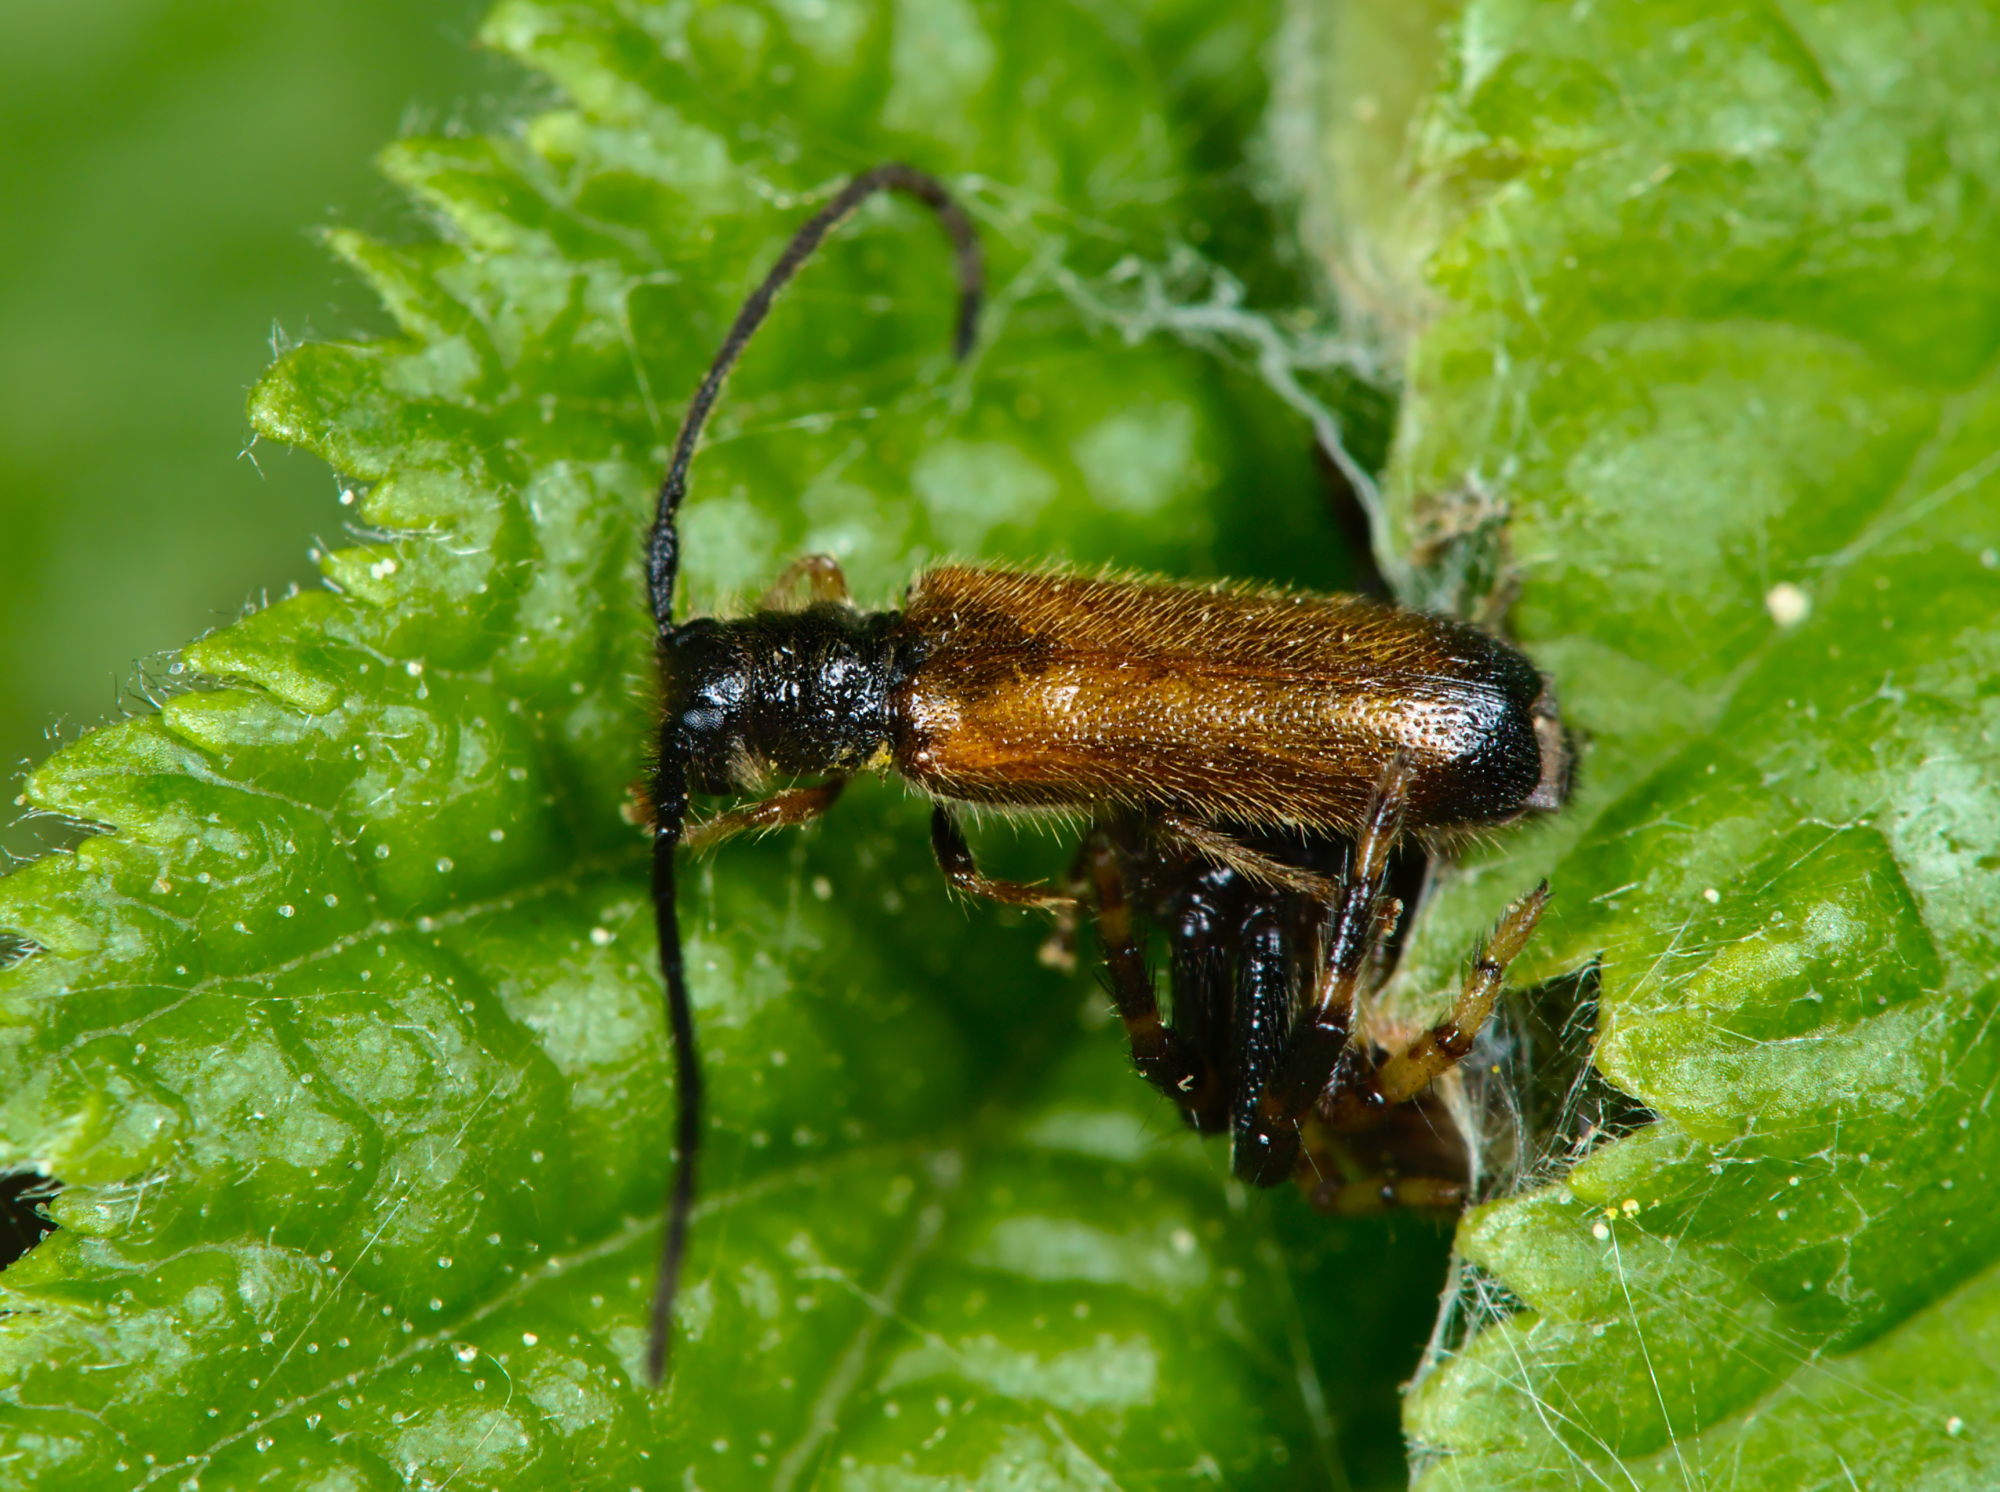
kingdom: Animalia
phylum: Arthropoda
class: Insecta
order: Coleoptera
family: Cerambycidae
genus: Tetrops
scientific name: Tetrops praeustus
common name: Plum beetle
